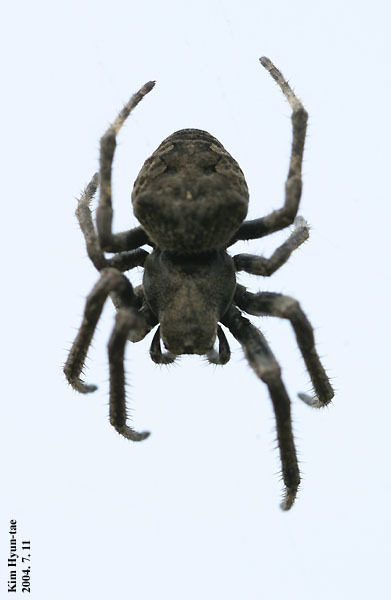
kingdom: Animalia
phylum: Arthropoda
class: Arachnida
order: Araneae
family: Araneidae
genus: Araneus
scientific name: Araneus ventricosus
